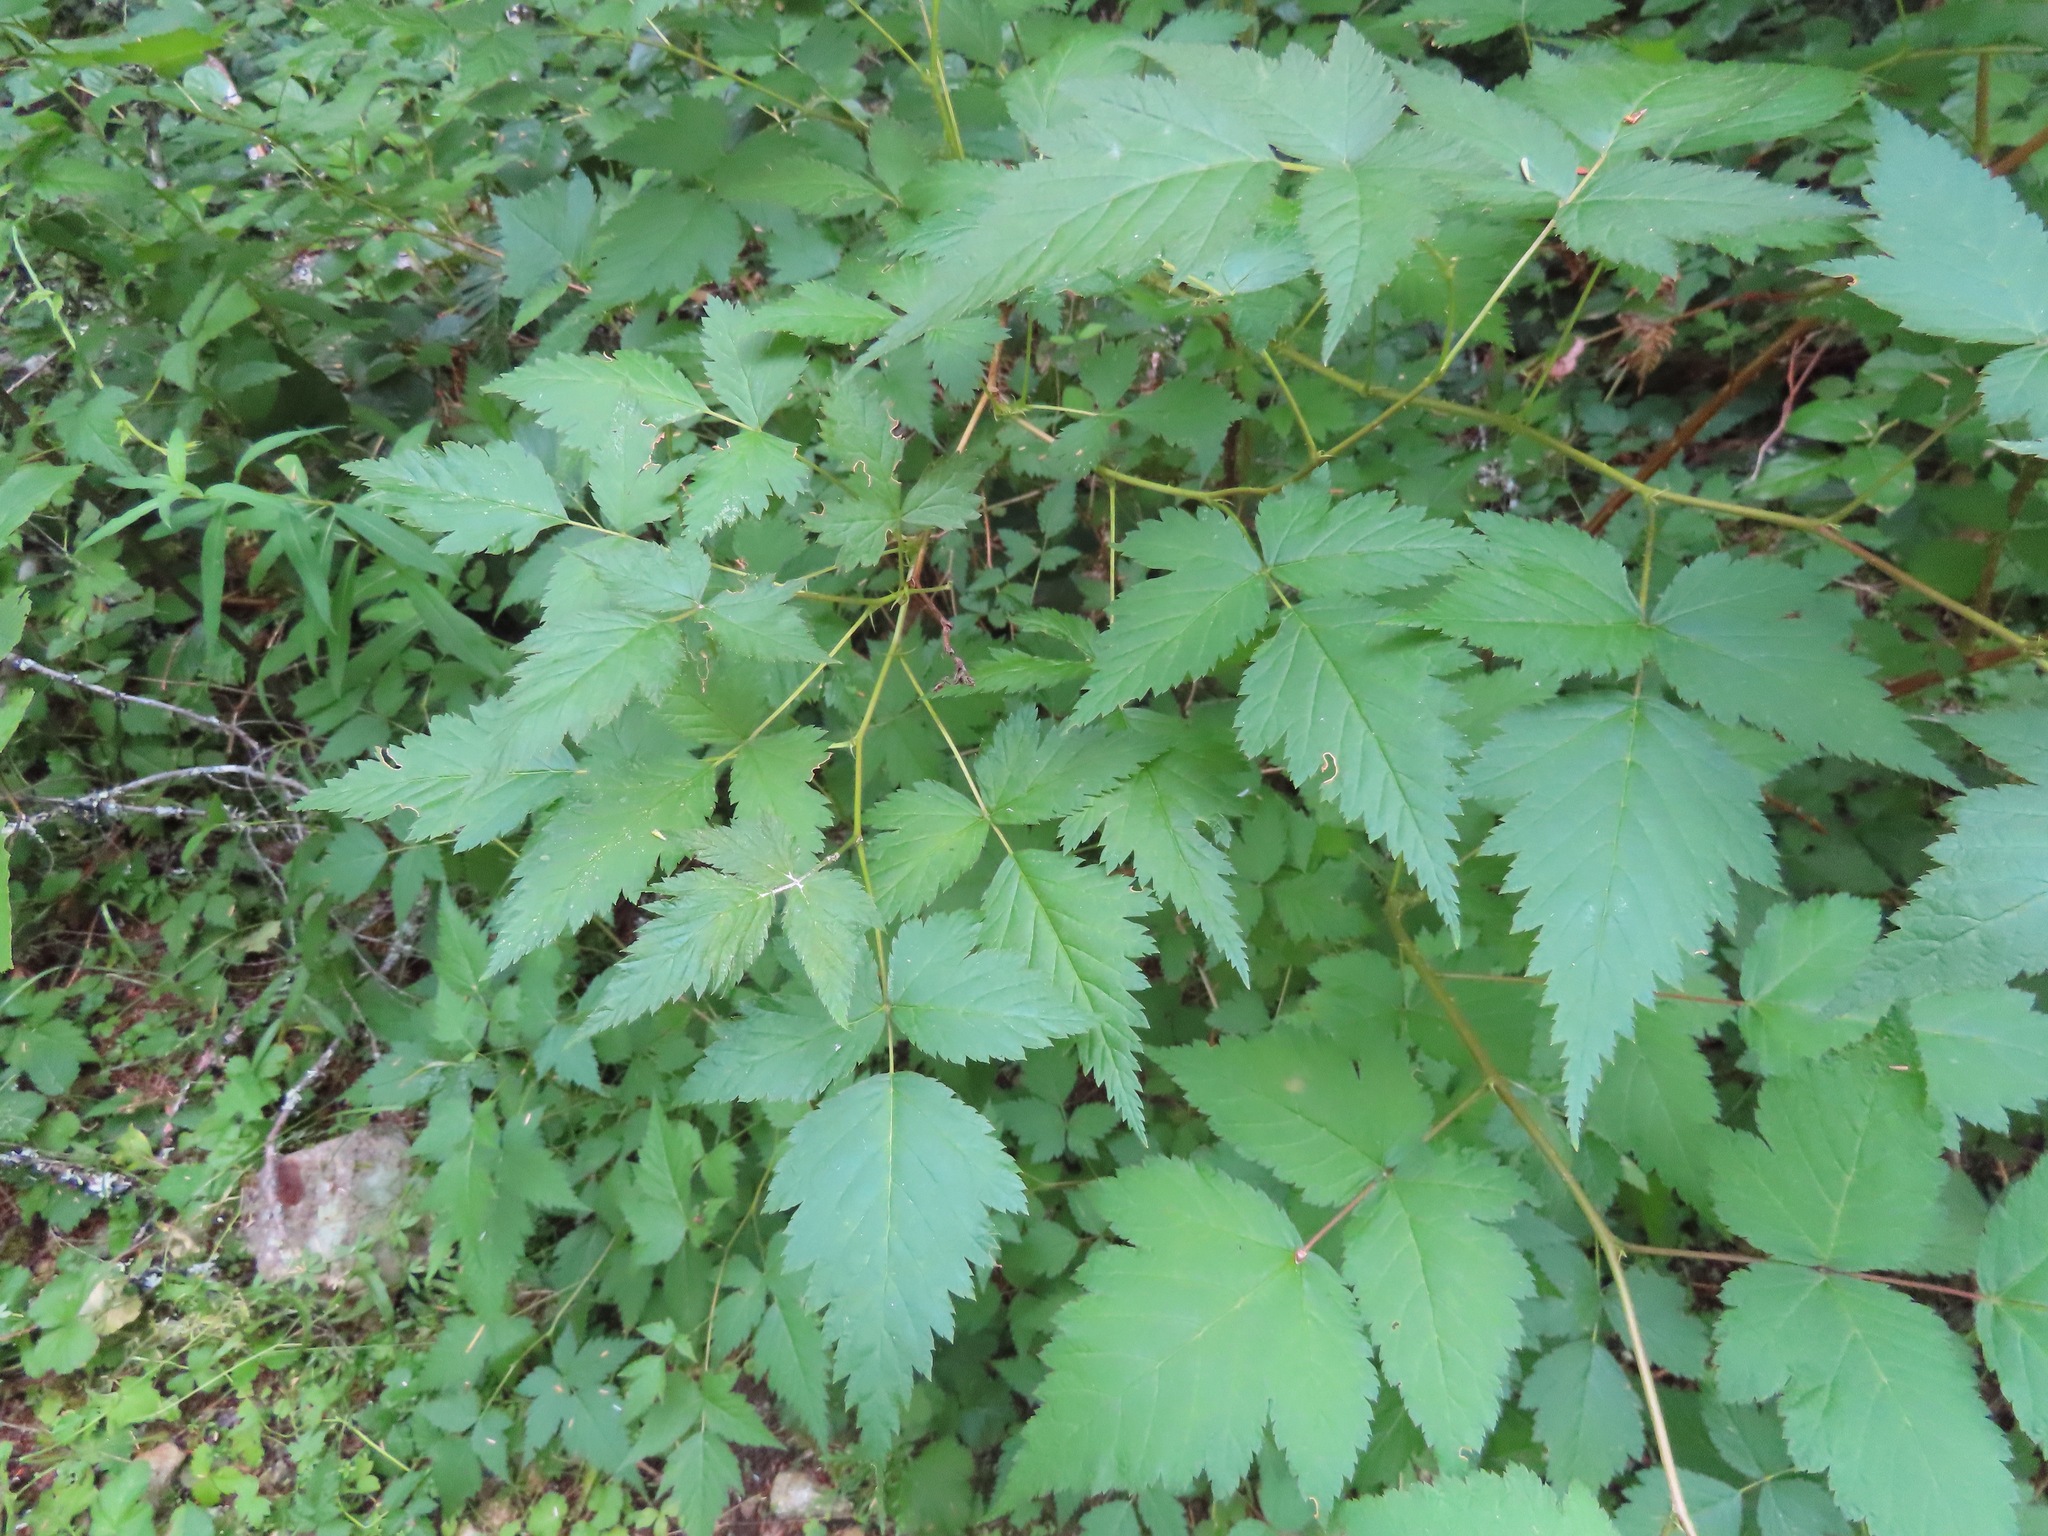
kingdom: Plantae
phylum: Tracheophyta
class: Magnoliopsida
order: Rosales
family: Rosaceae
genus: Rubus
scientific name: Rubus spectabilis
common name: Salmonberry
